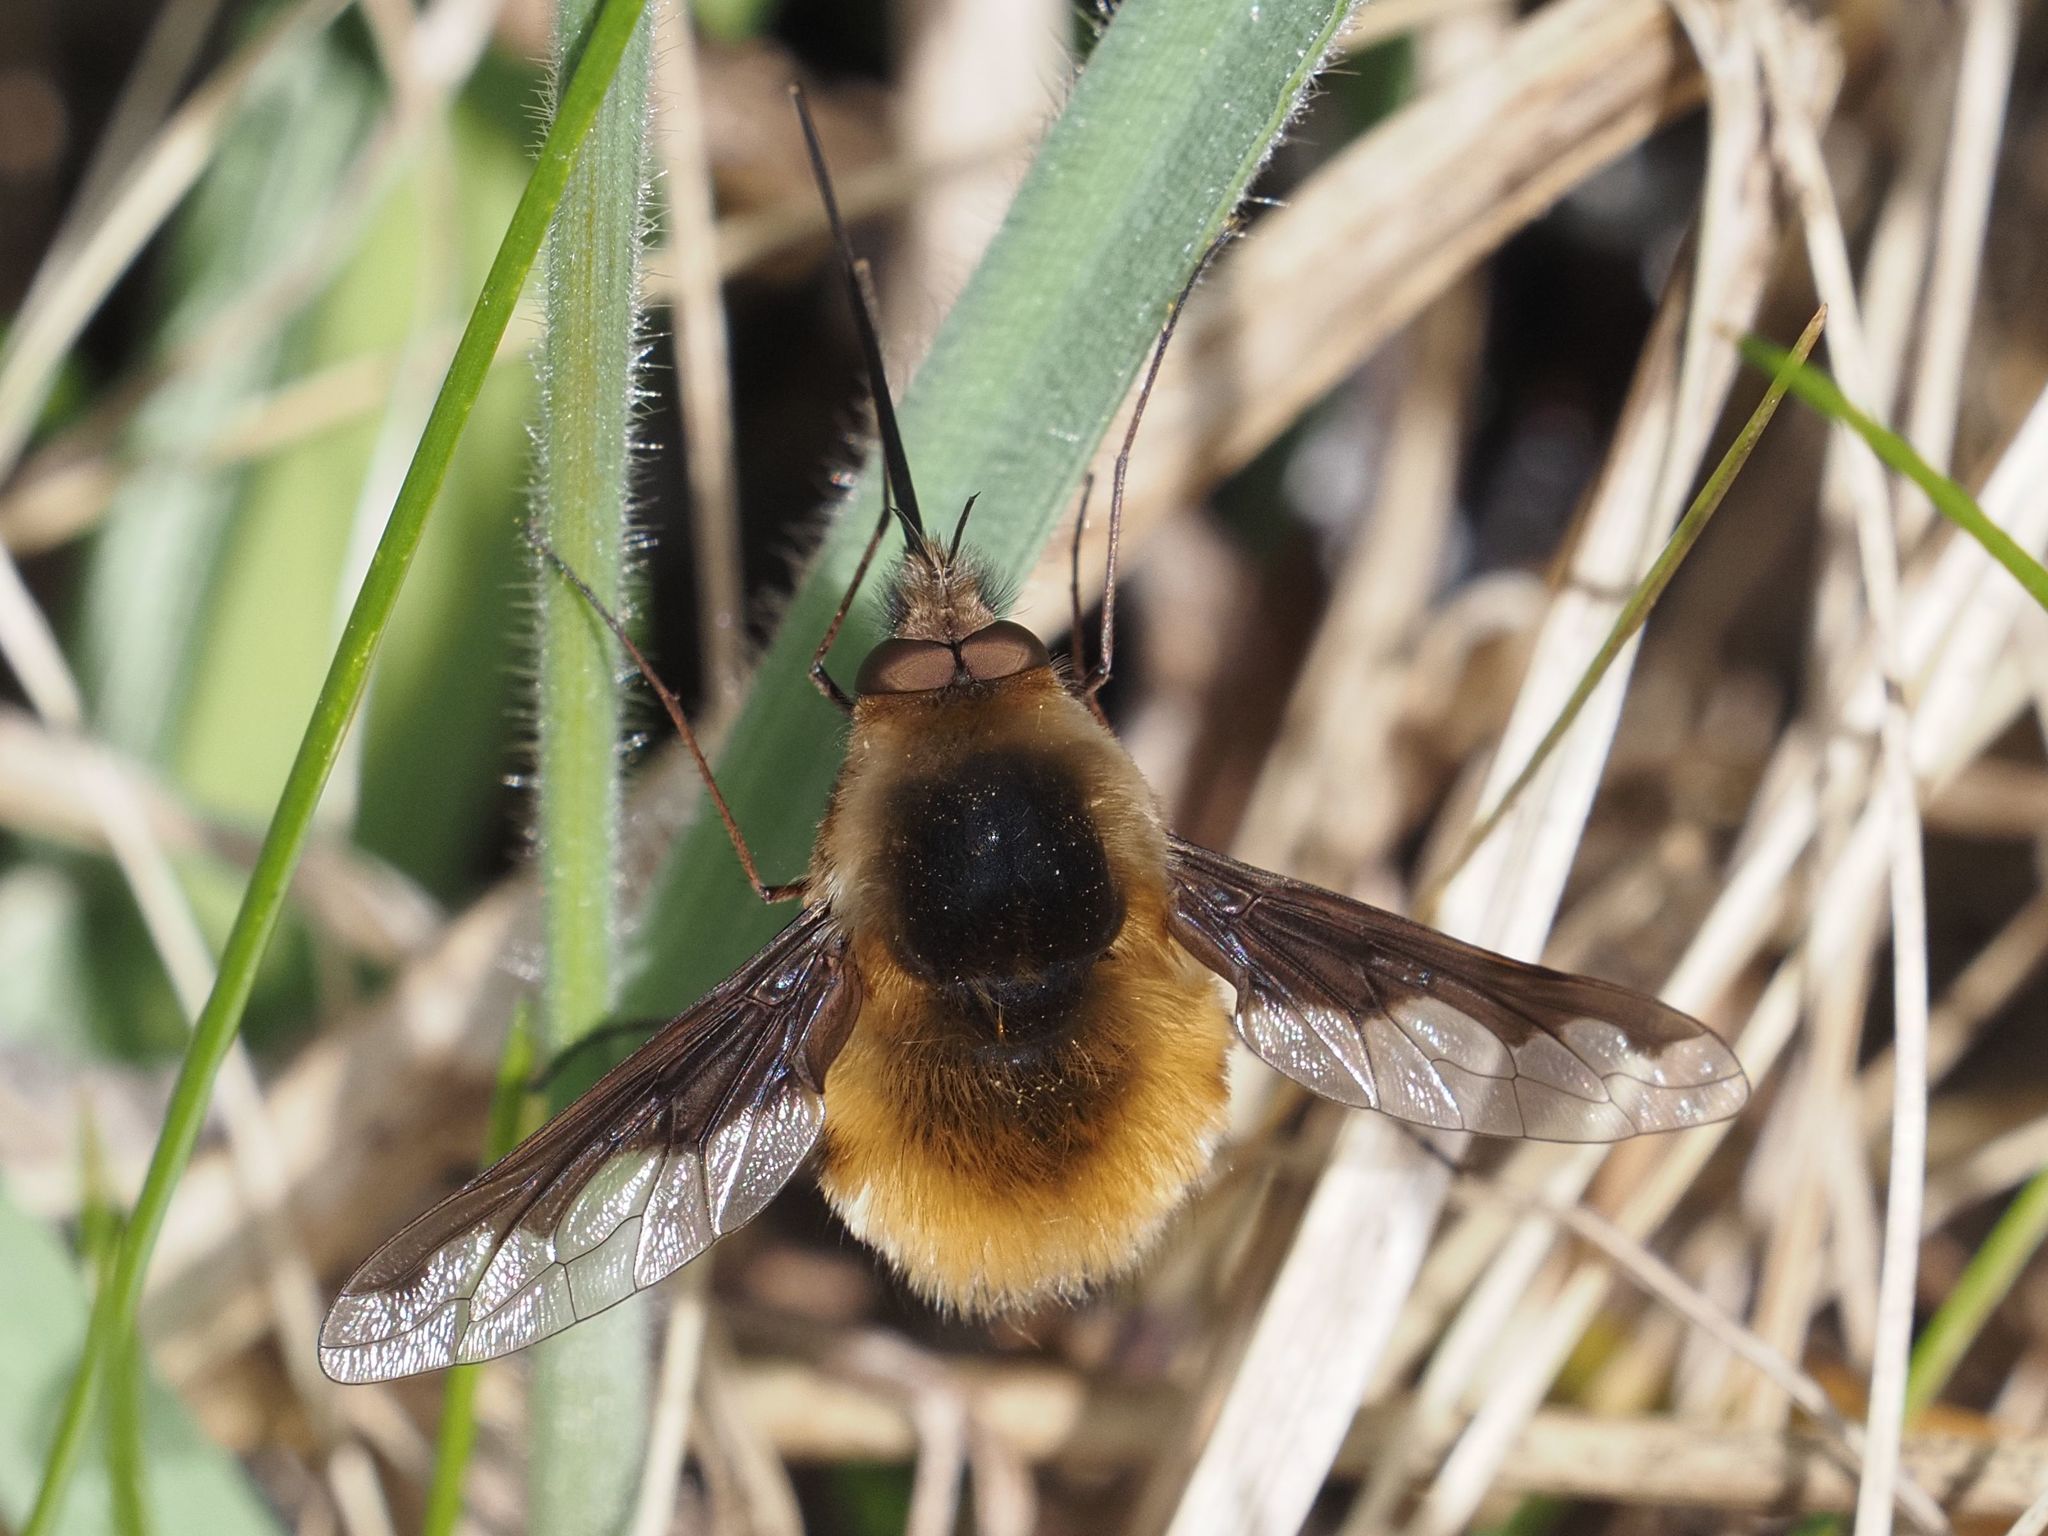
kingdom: Animalia
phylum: Arthropoda
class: Insecta
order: Diptera
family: Bombyliidae
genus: Bombylius
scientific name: Bombylius major
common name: Bee fly
